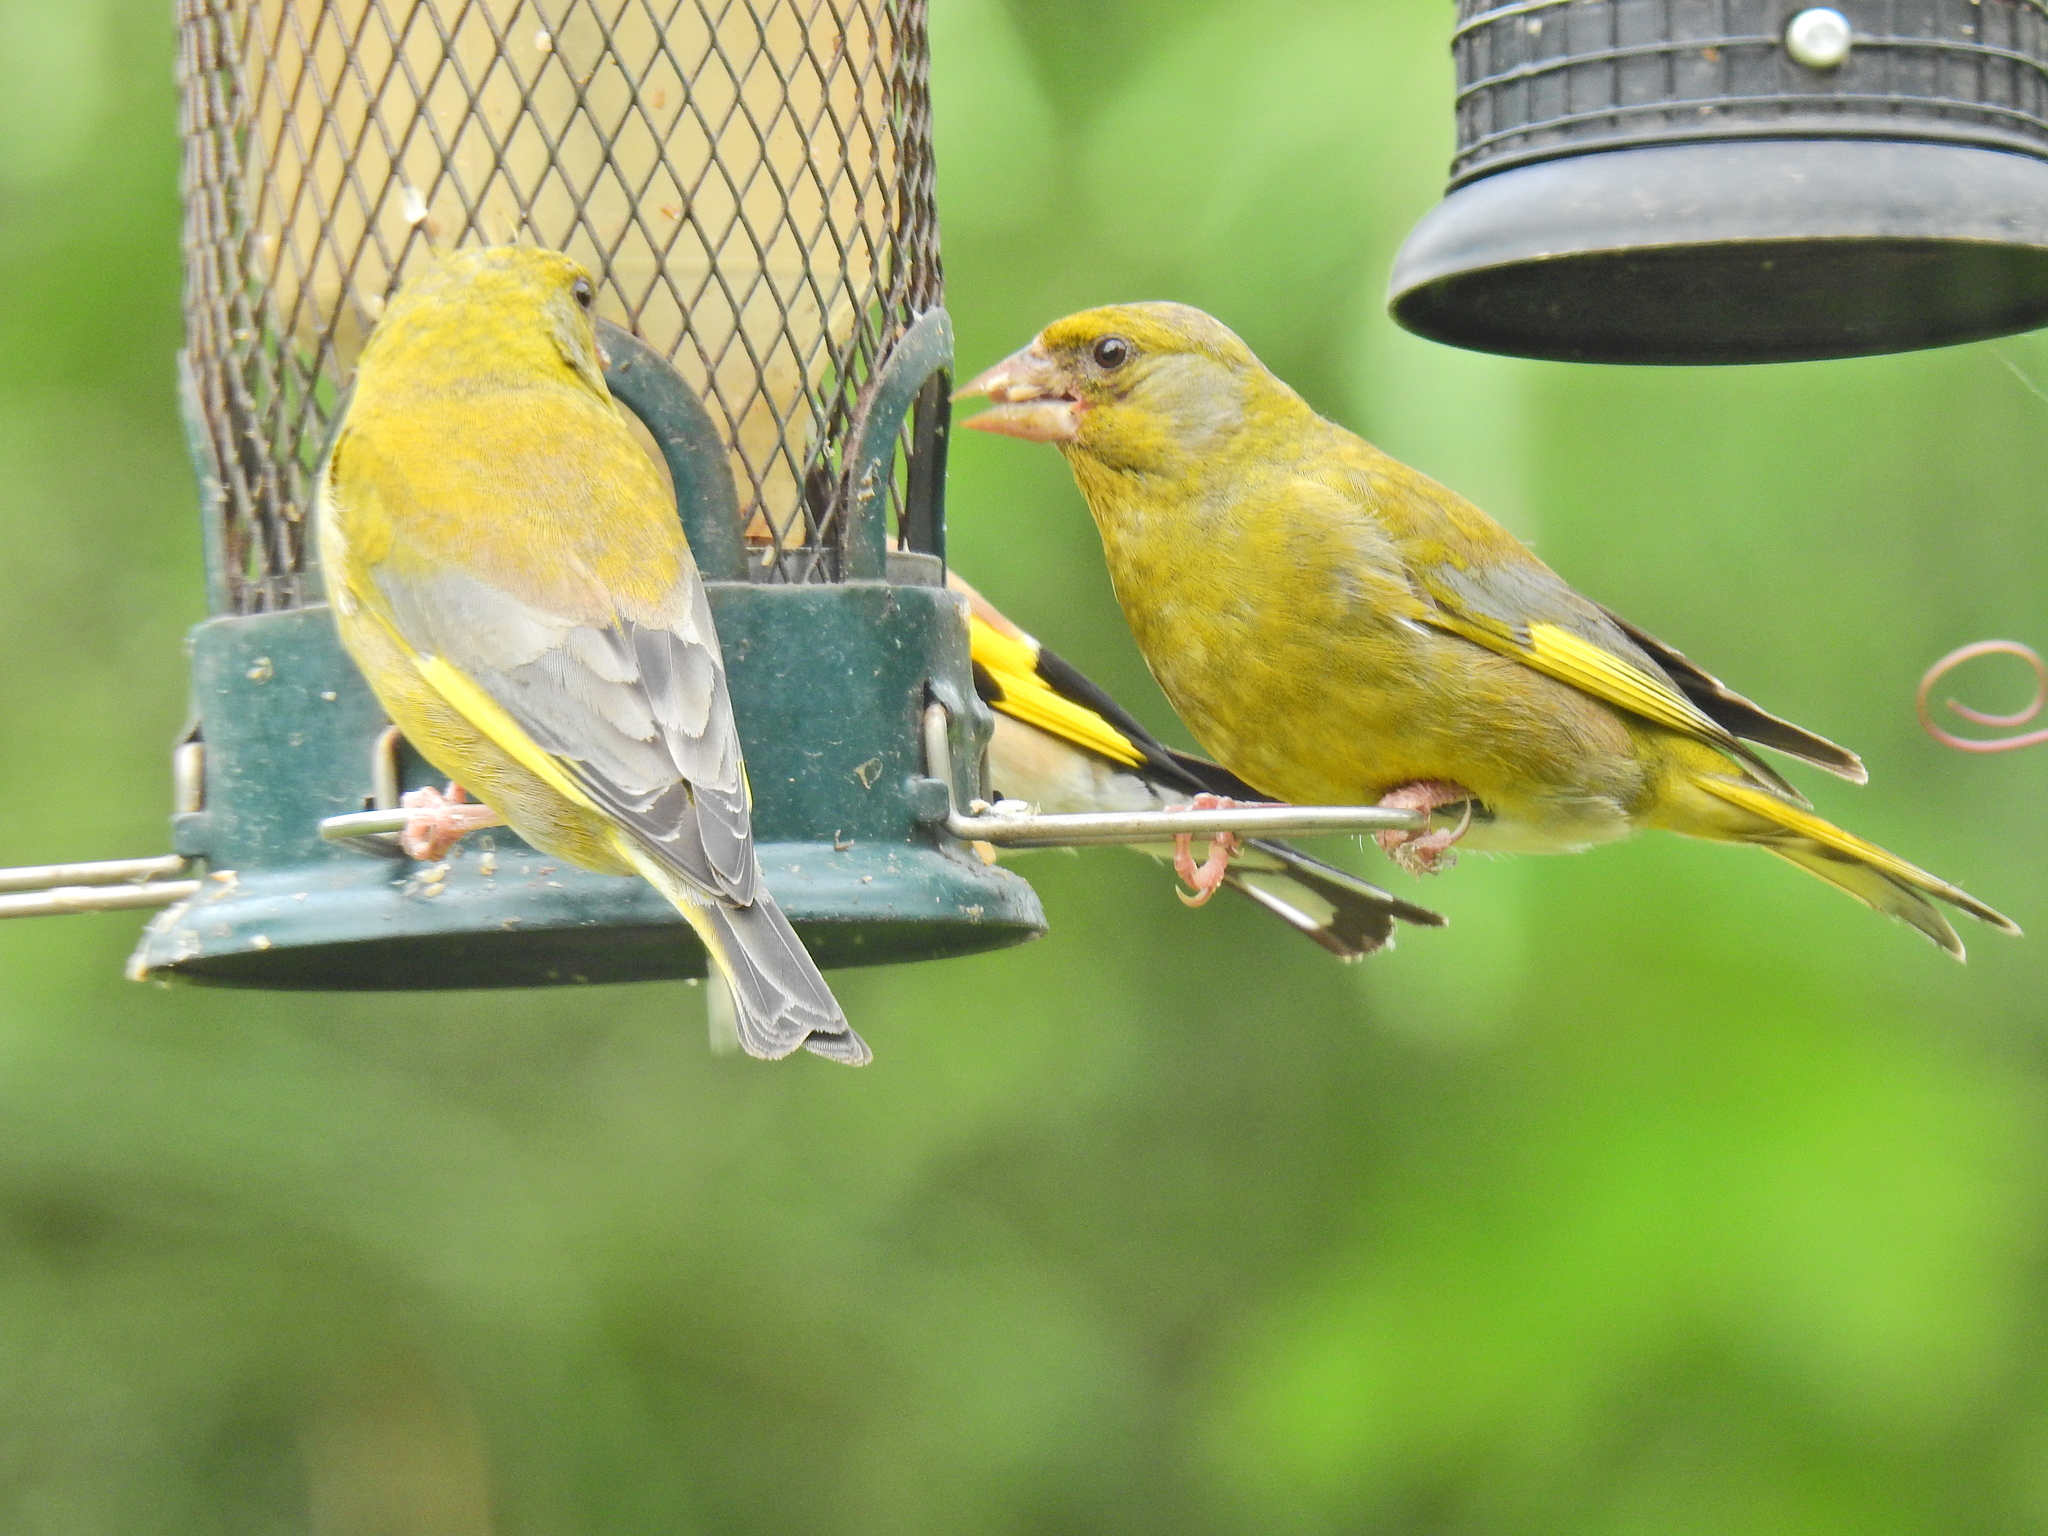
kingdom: Plantae
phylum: Tracheophyta
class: Liliopsida
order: Poales
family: Poaceae
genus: Chloris
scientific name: Chloris chloris
